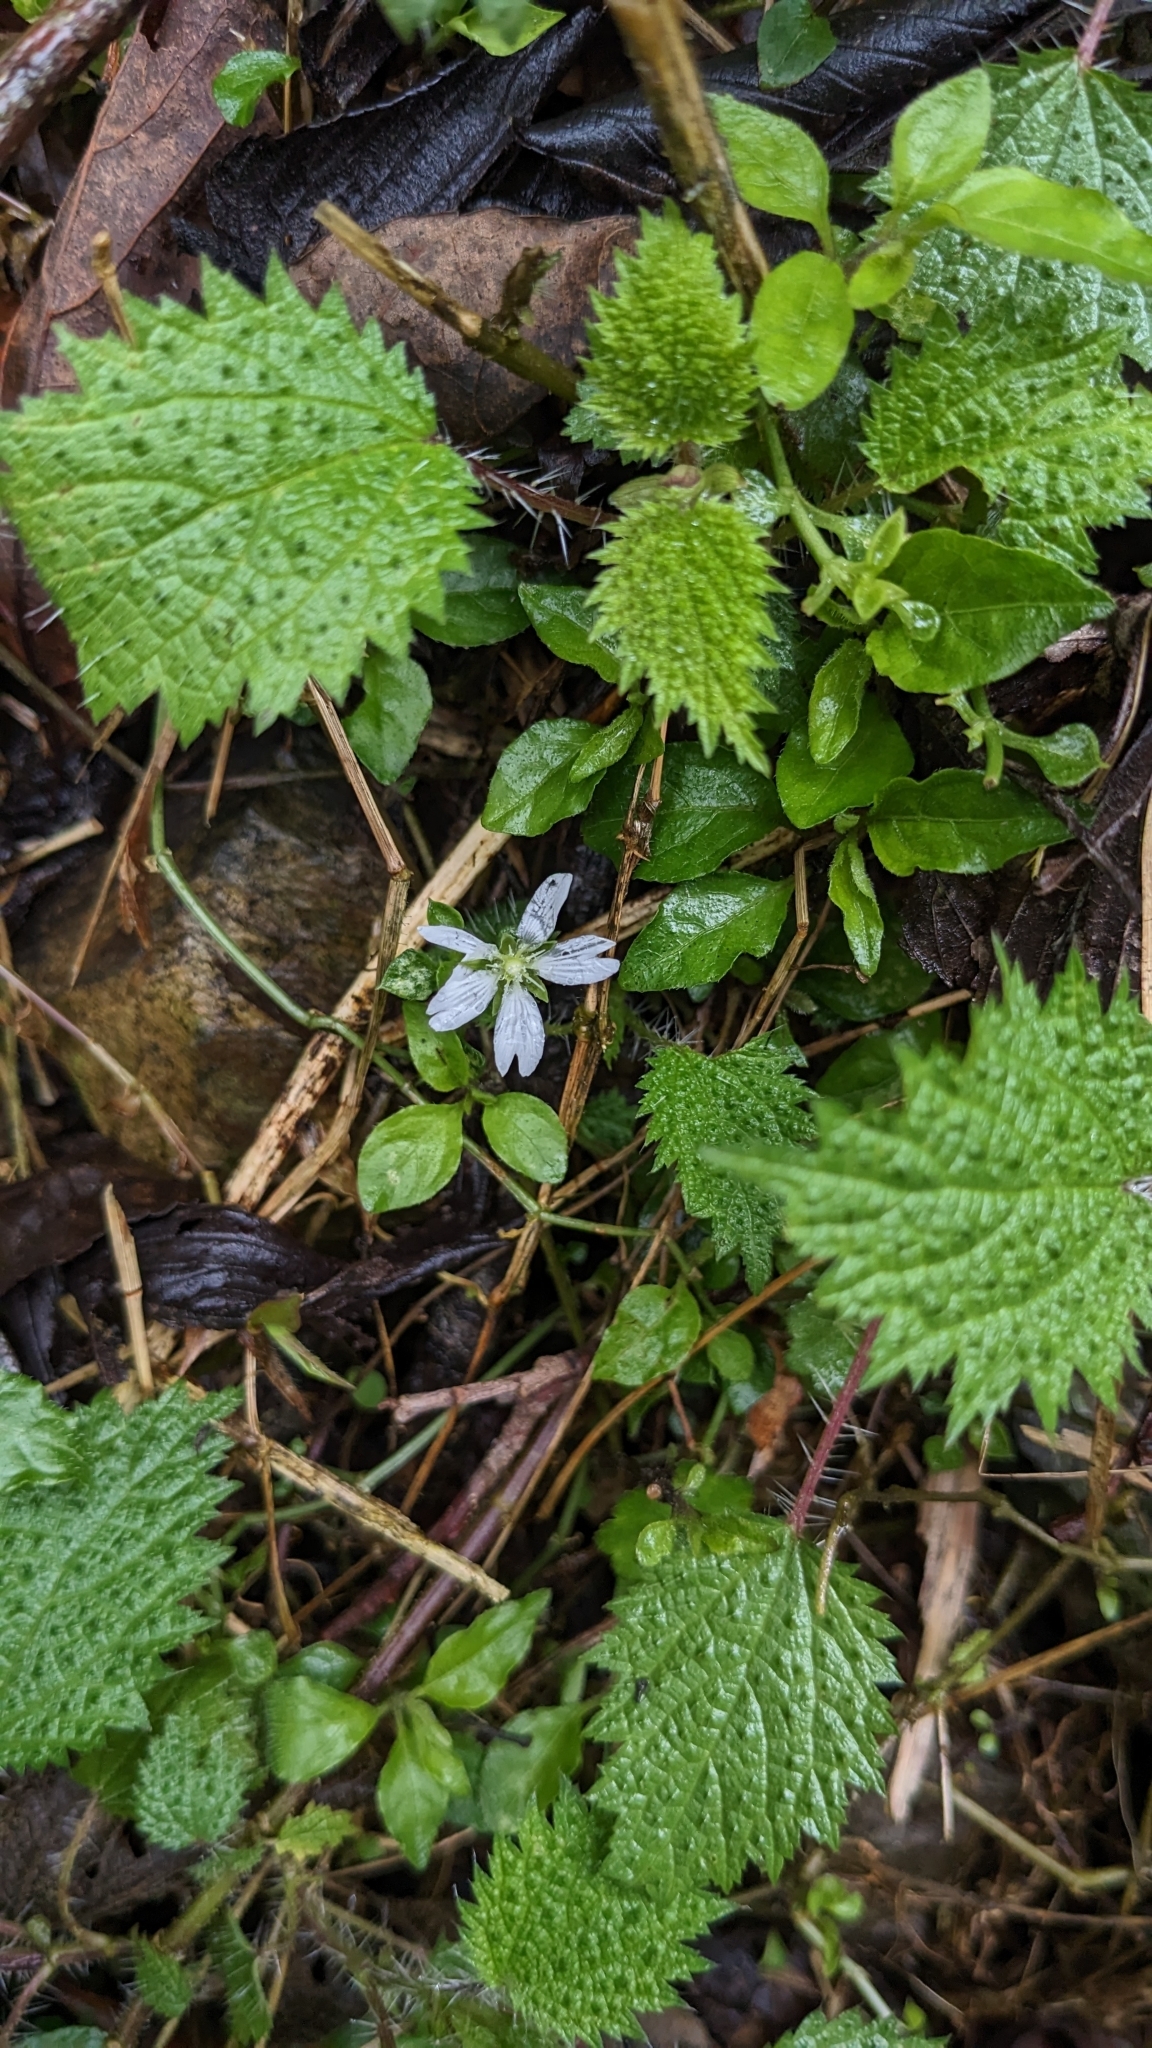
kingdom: Plantae
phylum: Tracheophyta
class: Magnoliopsida
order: Caryophyllales
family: Caryophyllaceae
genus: Nubelaria
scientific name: Nubelaria arisanensis
